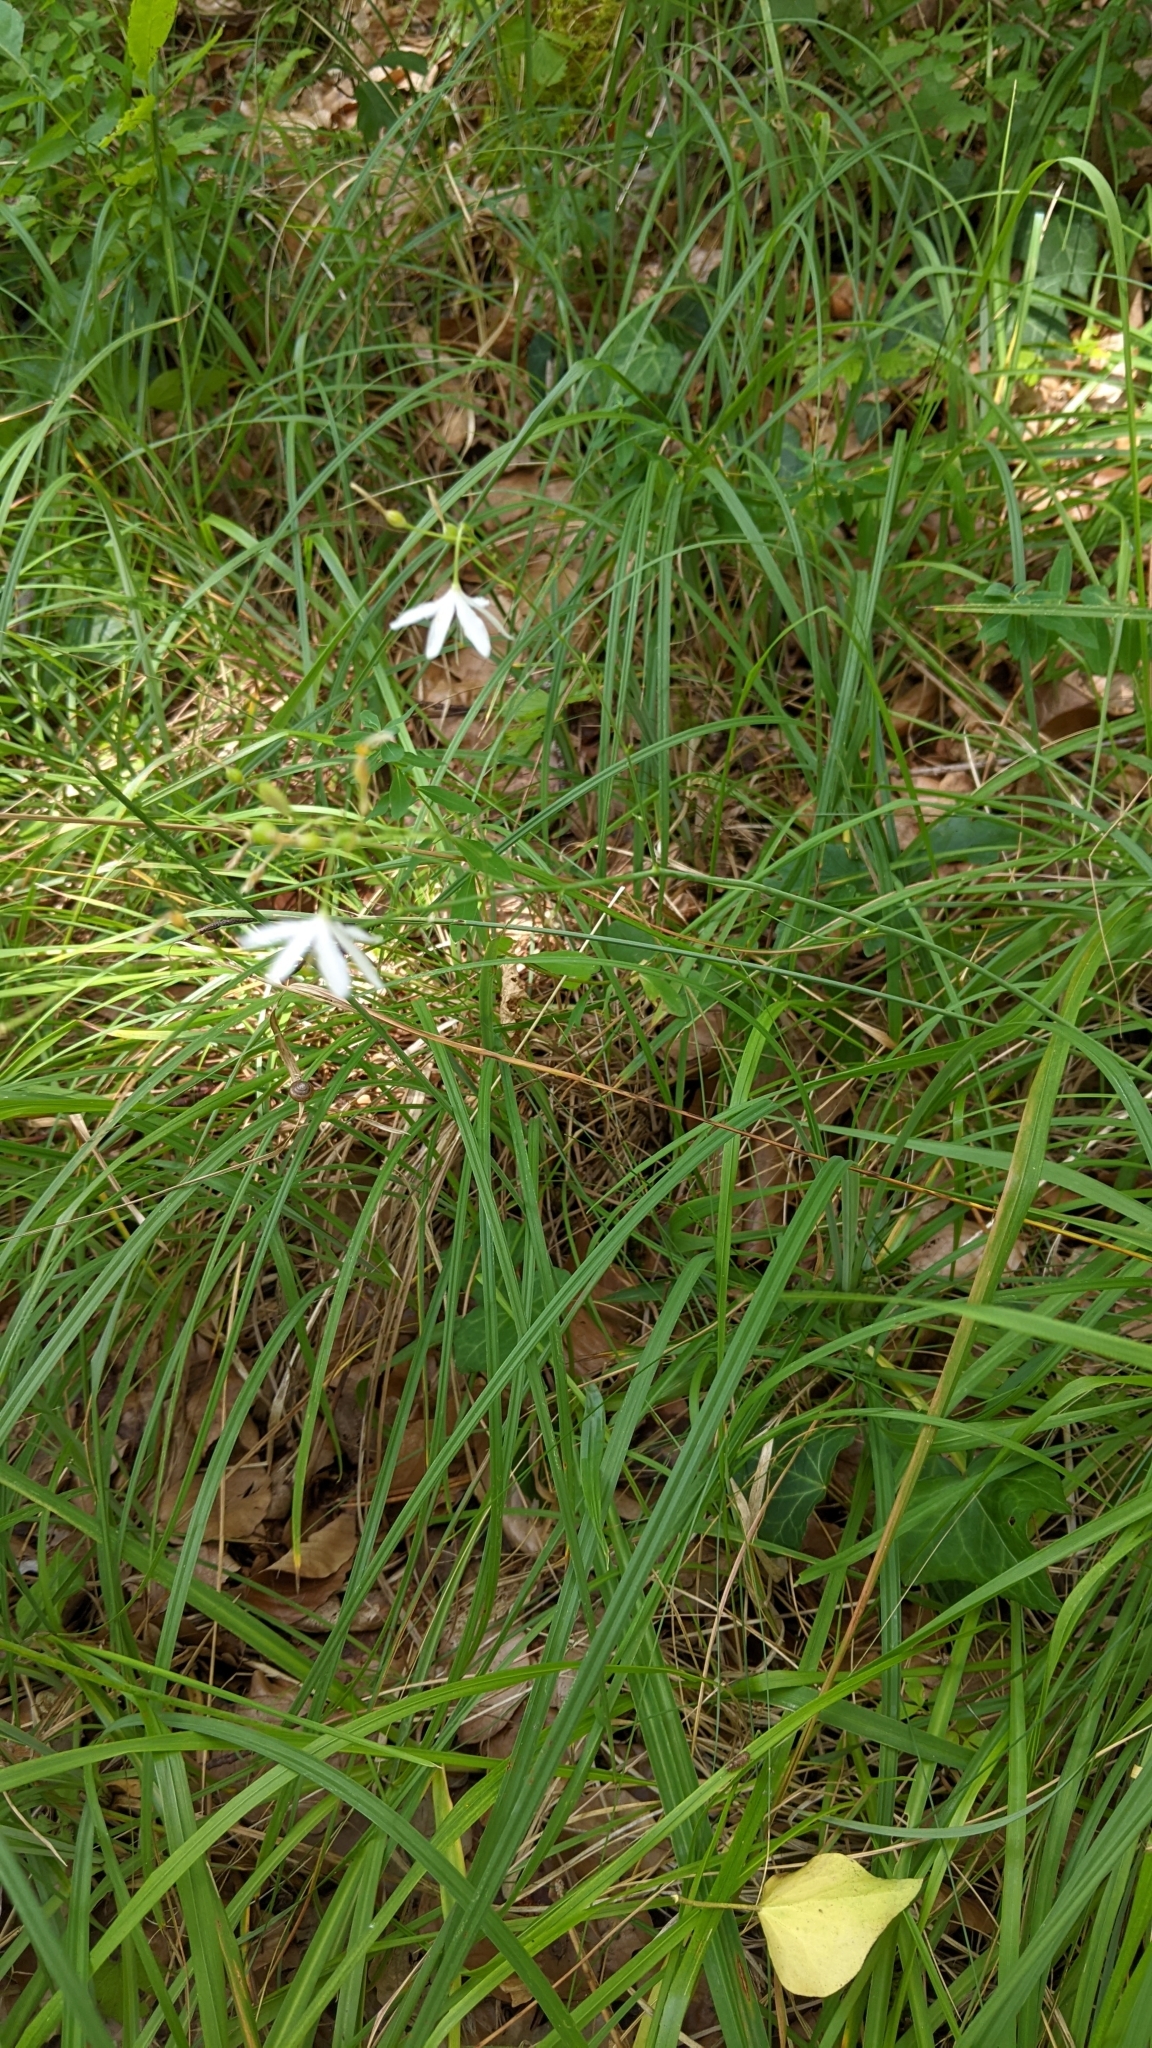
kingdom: Plantae
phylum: Tracheophyta
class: Liliopsida
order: Asparagales
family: Asparagaceae
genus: Anthericum
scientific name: Anthericum ramosum
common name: Branched st. bernard's-lily
